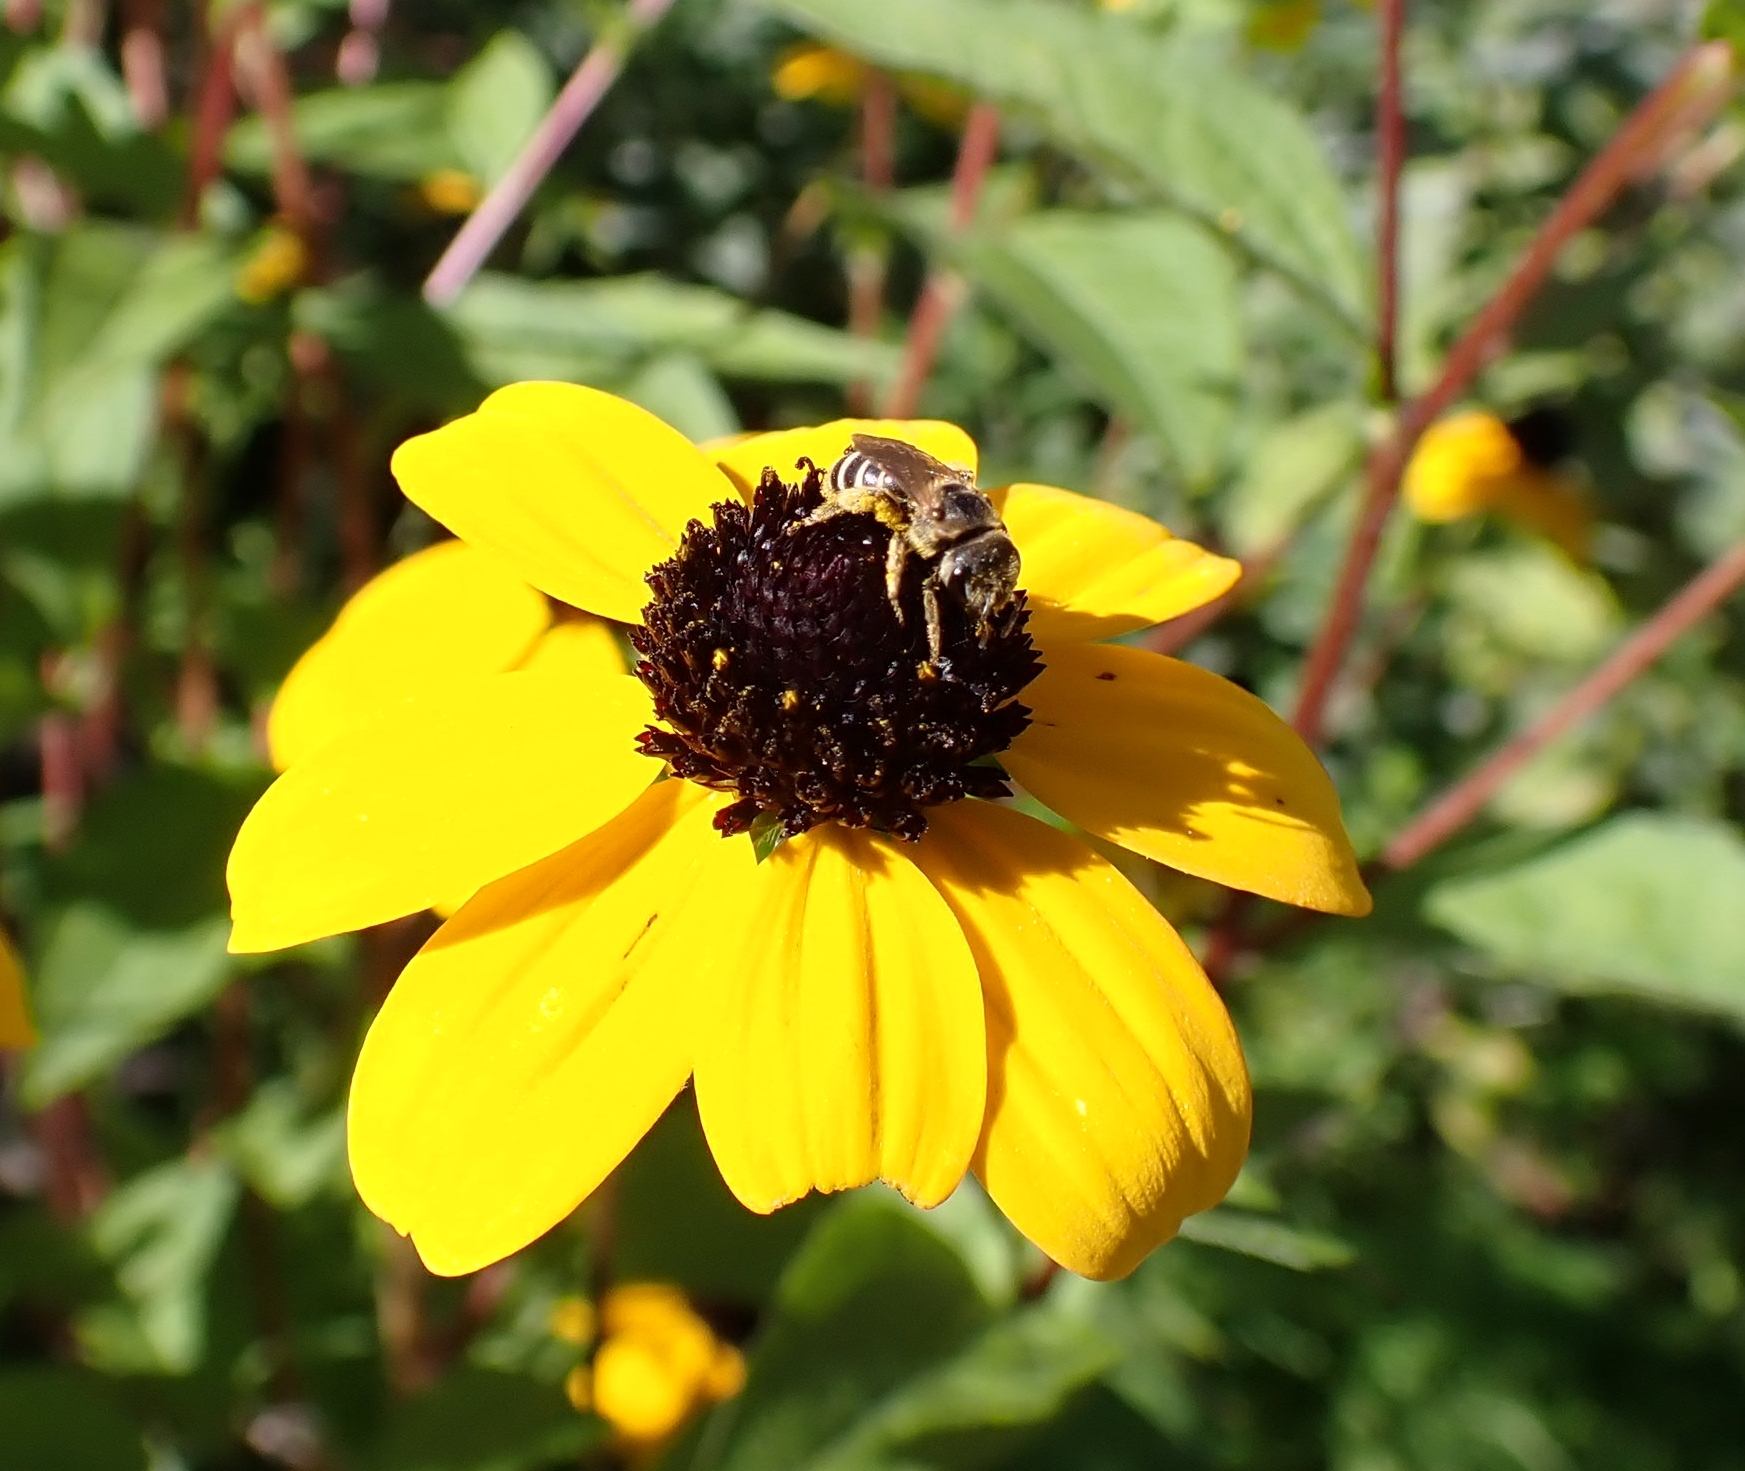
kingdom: Animalia
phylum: Arthropoda
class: Insecta
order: Hymenoptera
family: Halictidae
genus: Halictus
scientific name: Halictus ligatus
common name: Ligated furrow bee
